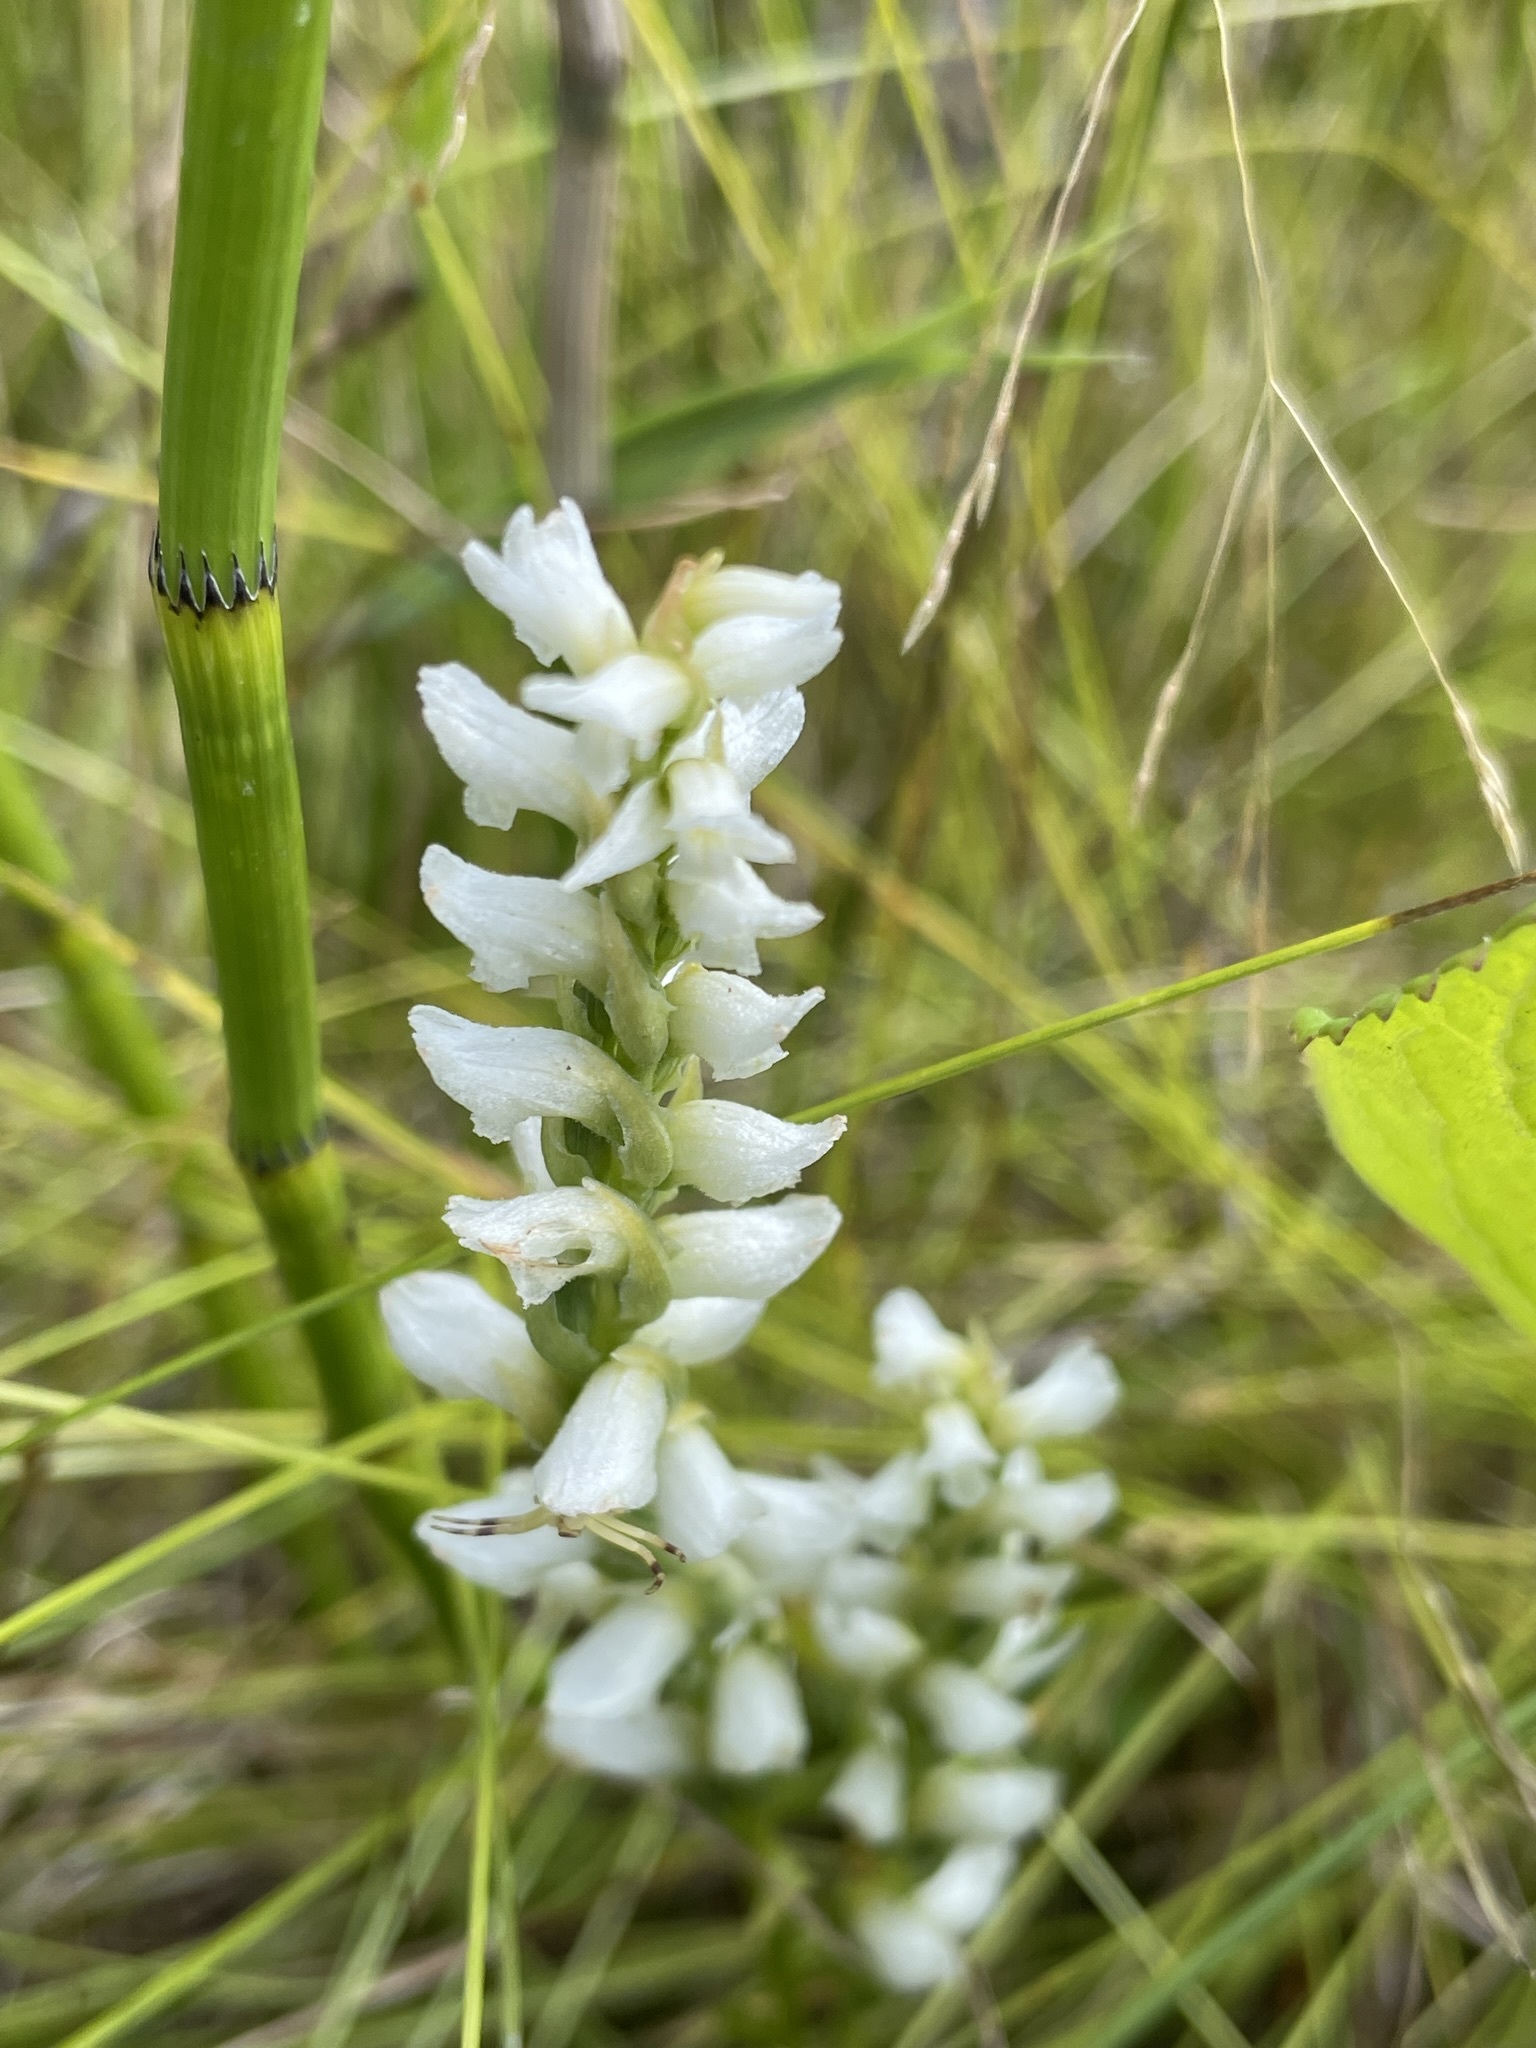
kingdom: Plantae
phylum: Tracheophyta
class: Liliopsida
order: Asparagales
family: Orchidaceae
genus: Spiranthes
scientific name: Spiranthes romanzoffiana
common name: Irish lady's-tresses
